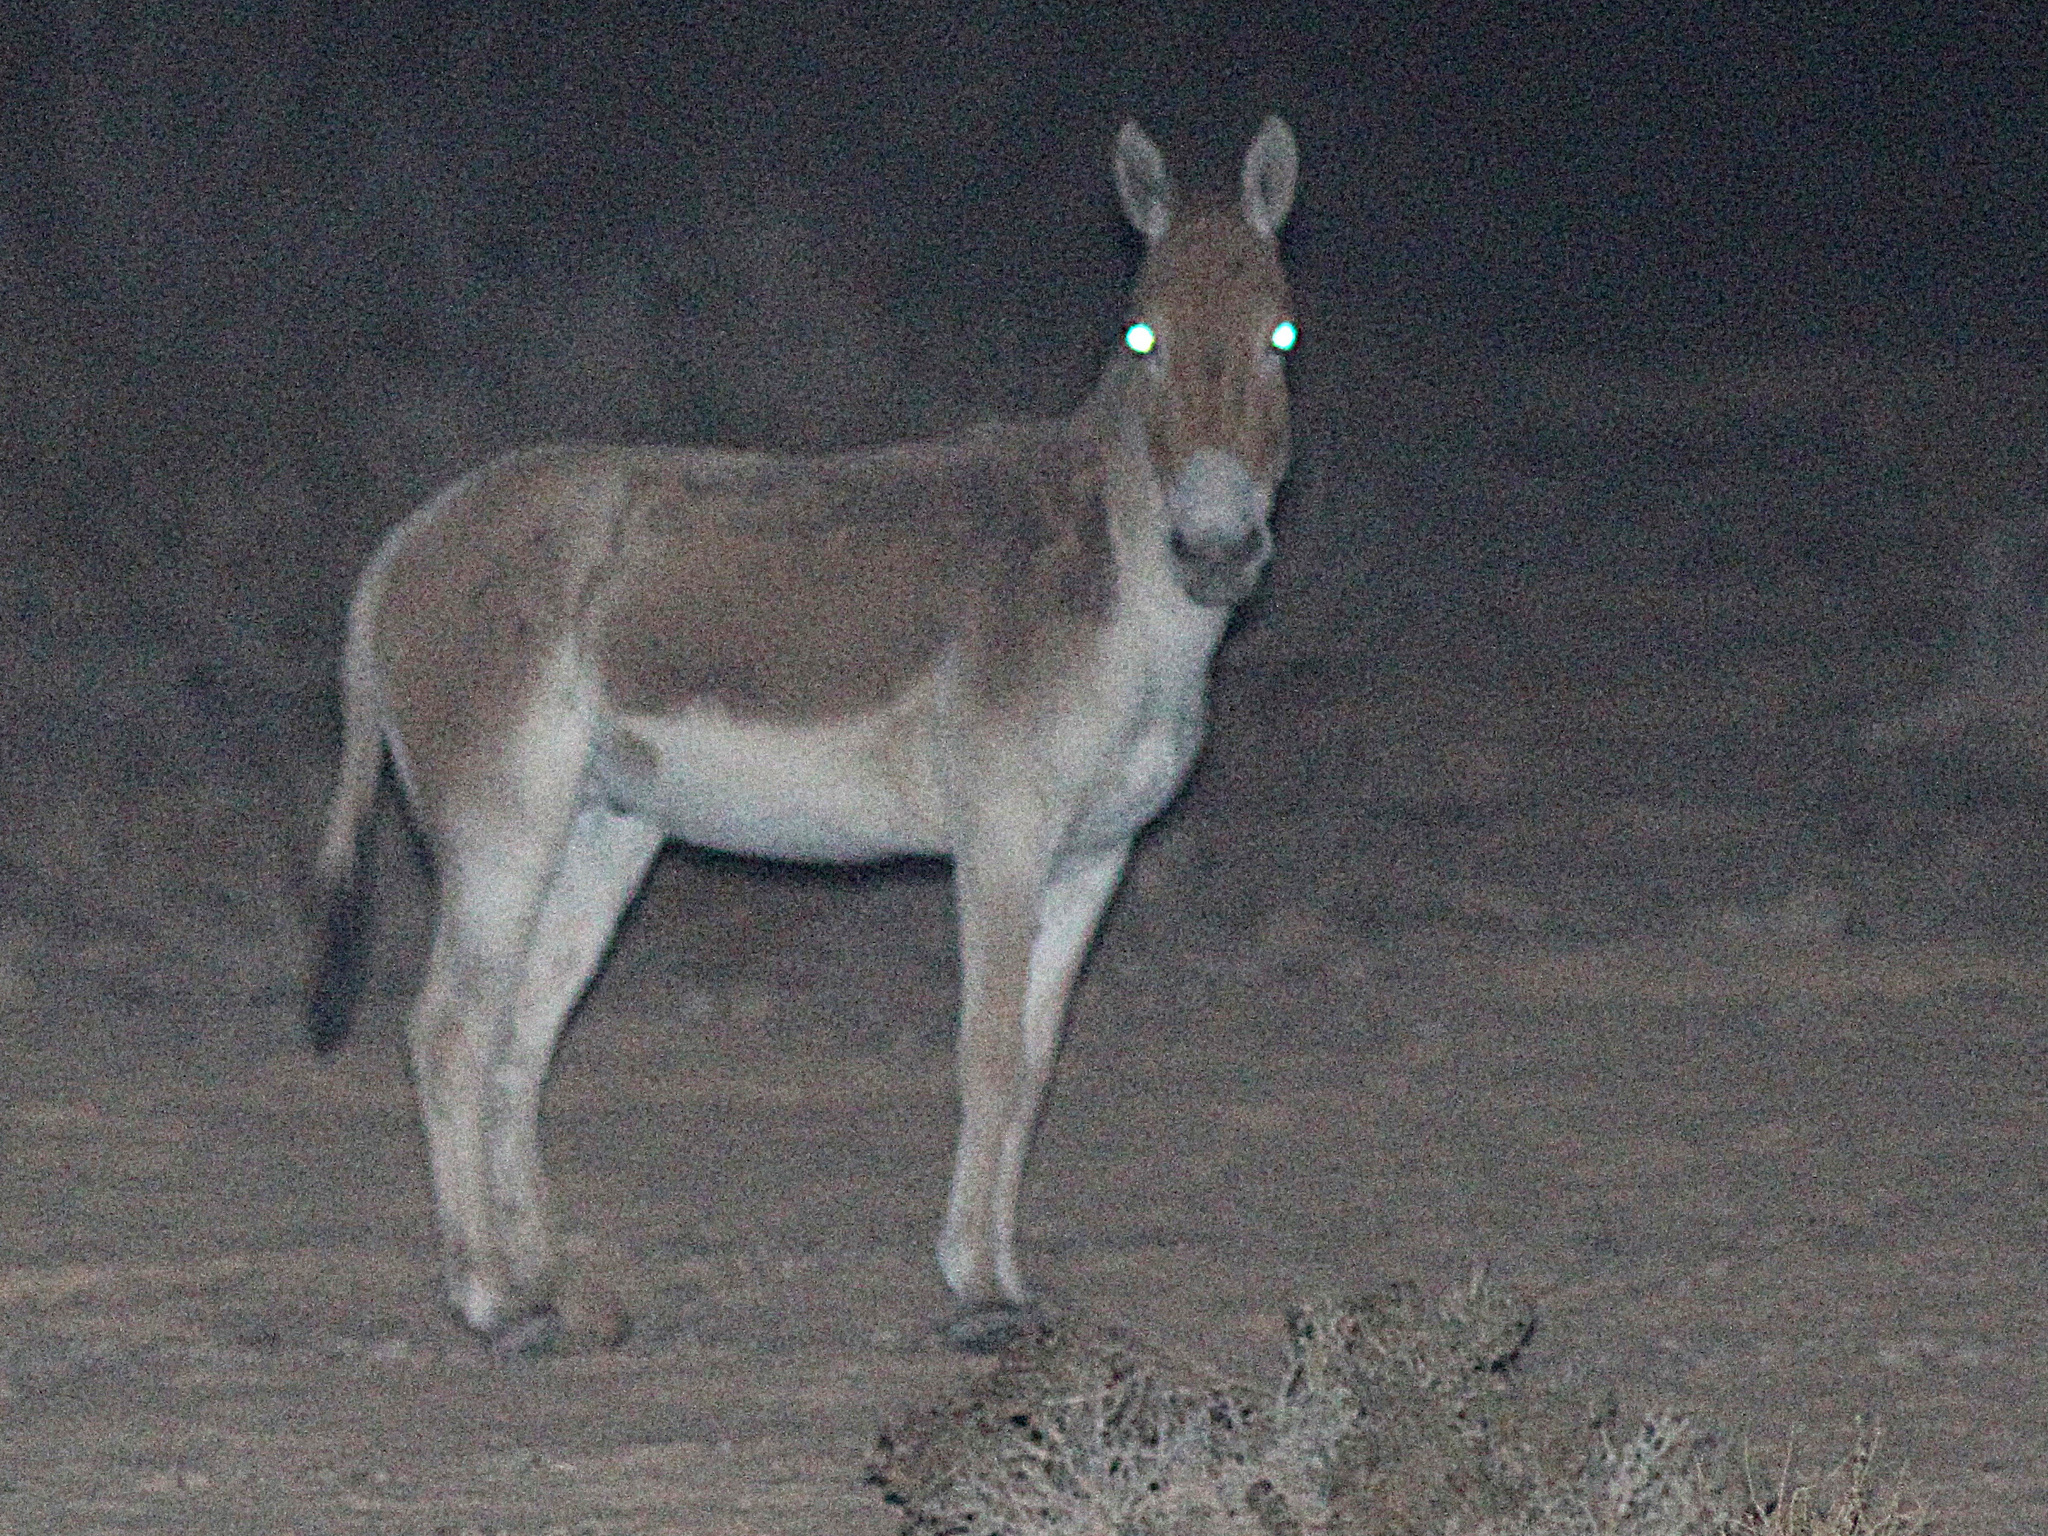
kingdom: Animalia
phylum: Chordata
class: Mammalia
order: Perissodactyla
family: Equidae
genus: Equus
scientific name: Equus hemionus
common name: Onager
